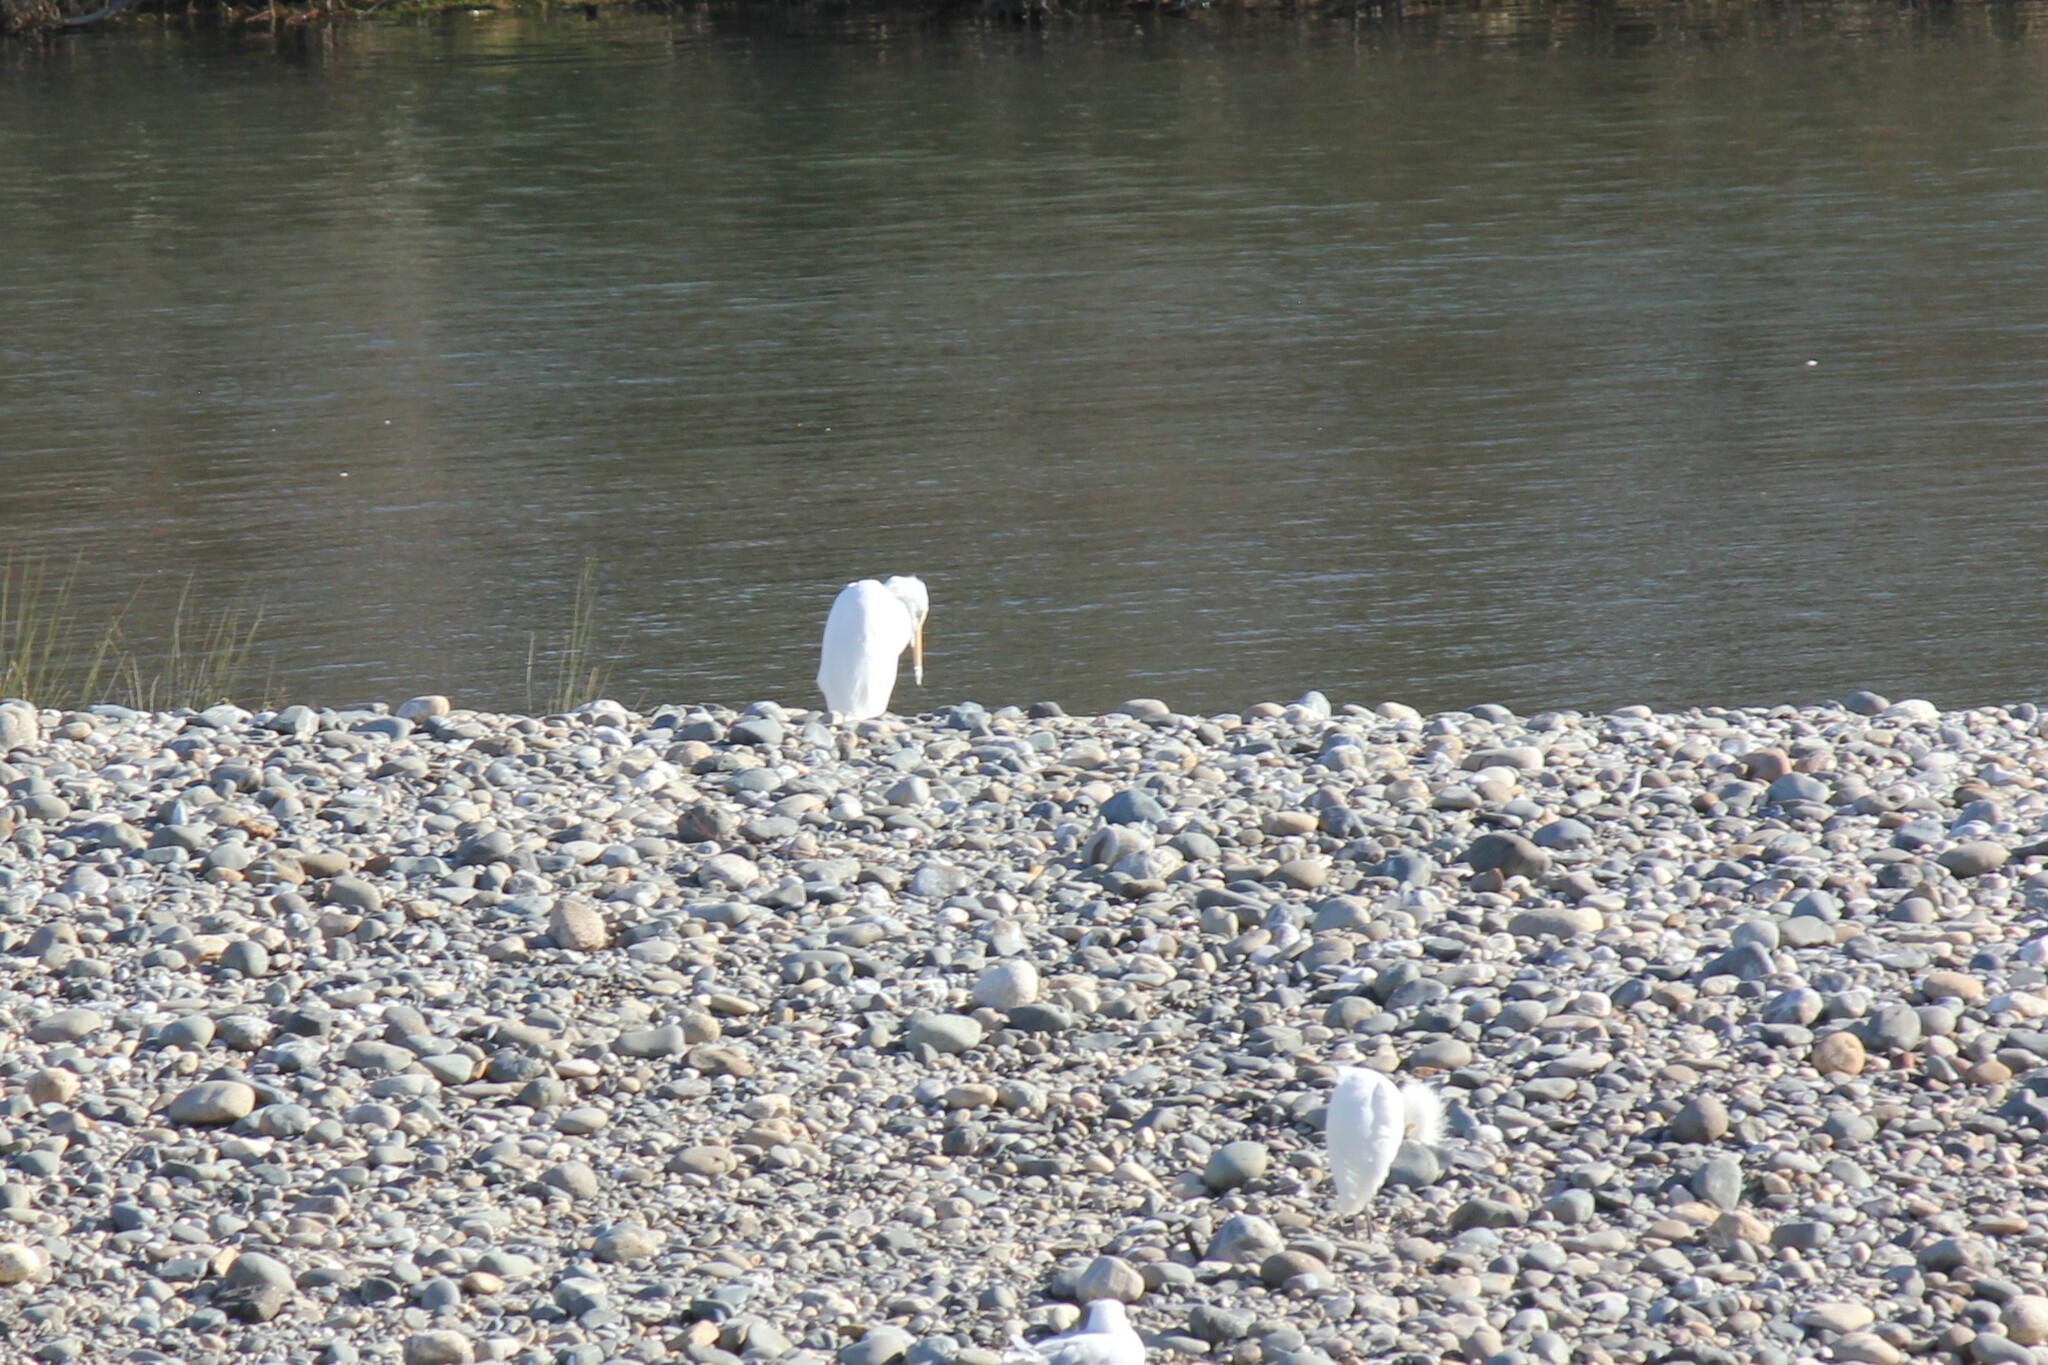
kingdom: Animalia
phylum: Chordata
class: Aves
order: Pelecaniformes
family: Ardeidae
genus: Ardea
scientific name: Ardea alba
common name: Great egret
